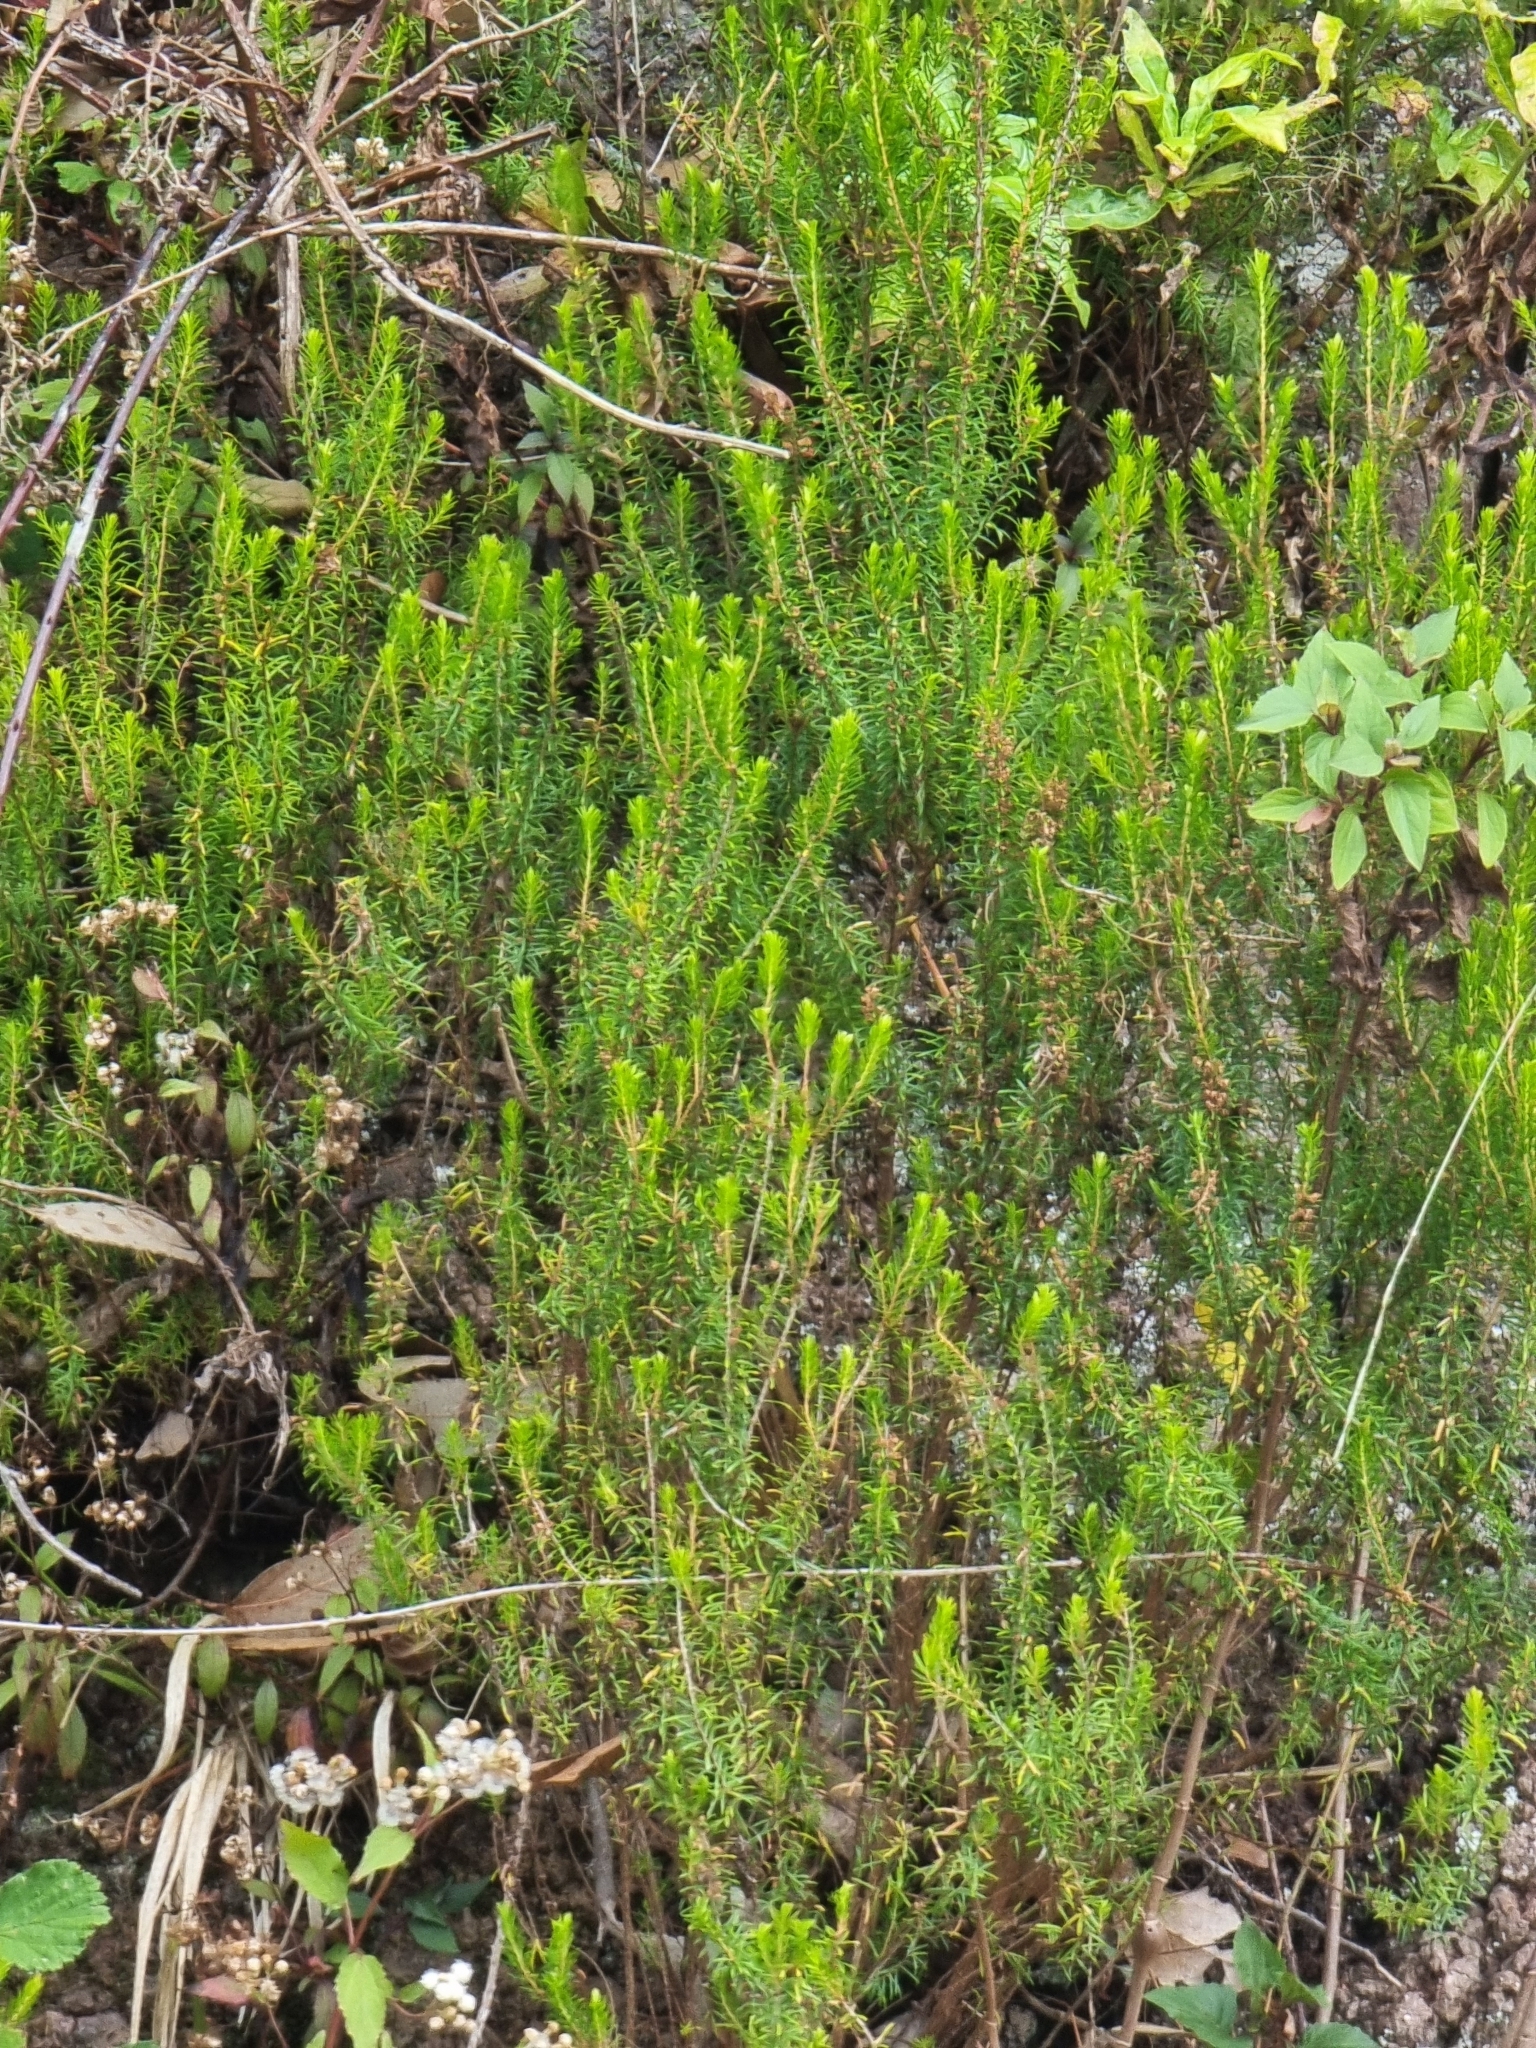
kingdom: Plantae
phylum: Tracheophyta
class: Magnoliopsida
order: Ericales
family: Ericaceae
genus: Erica
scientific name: Erica platycodon
